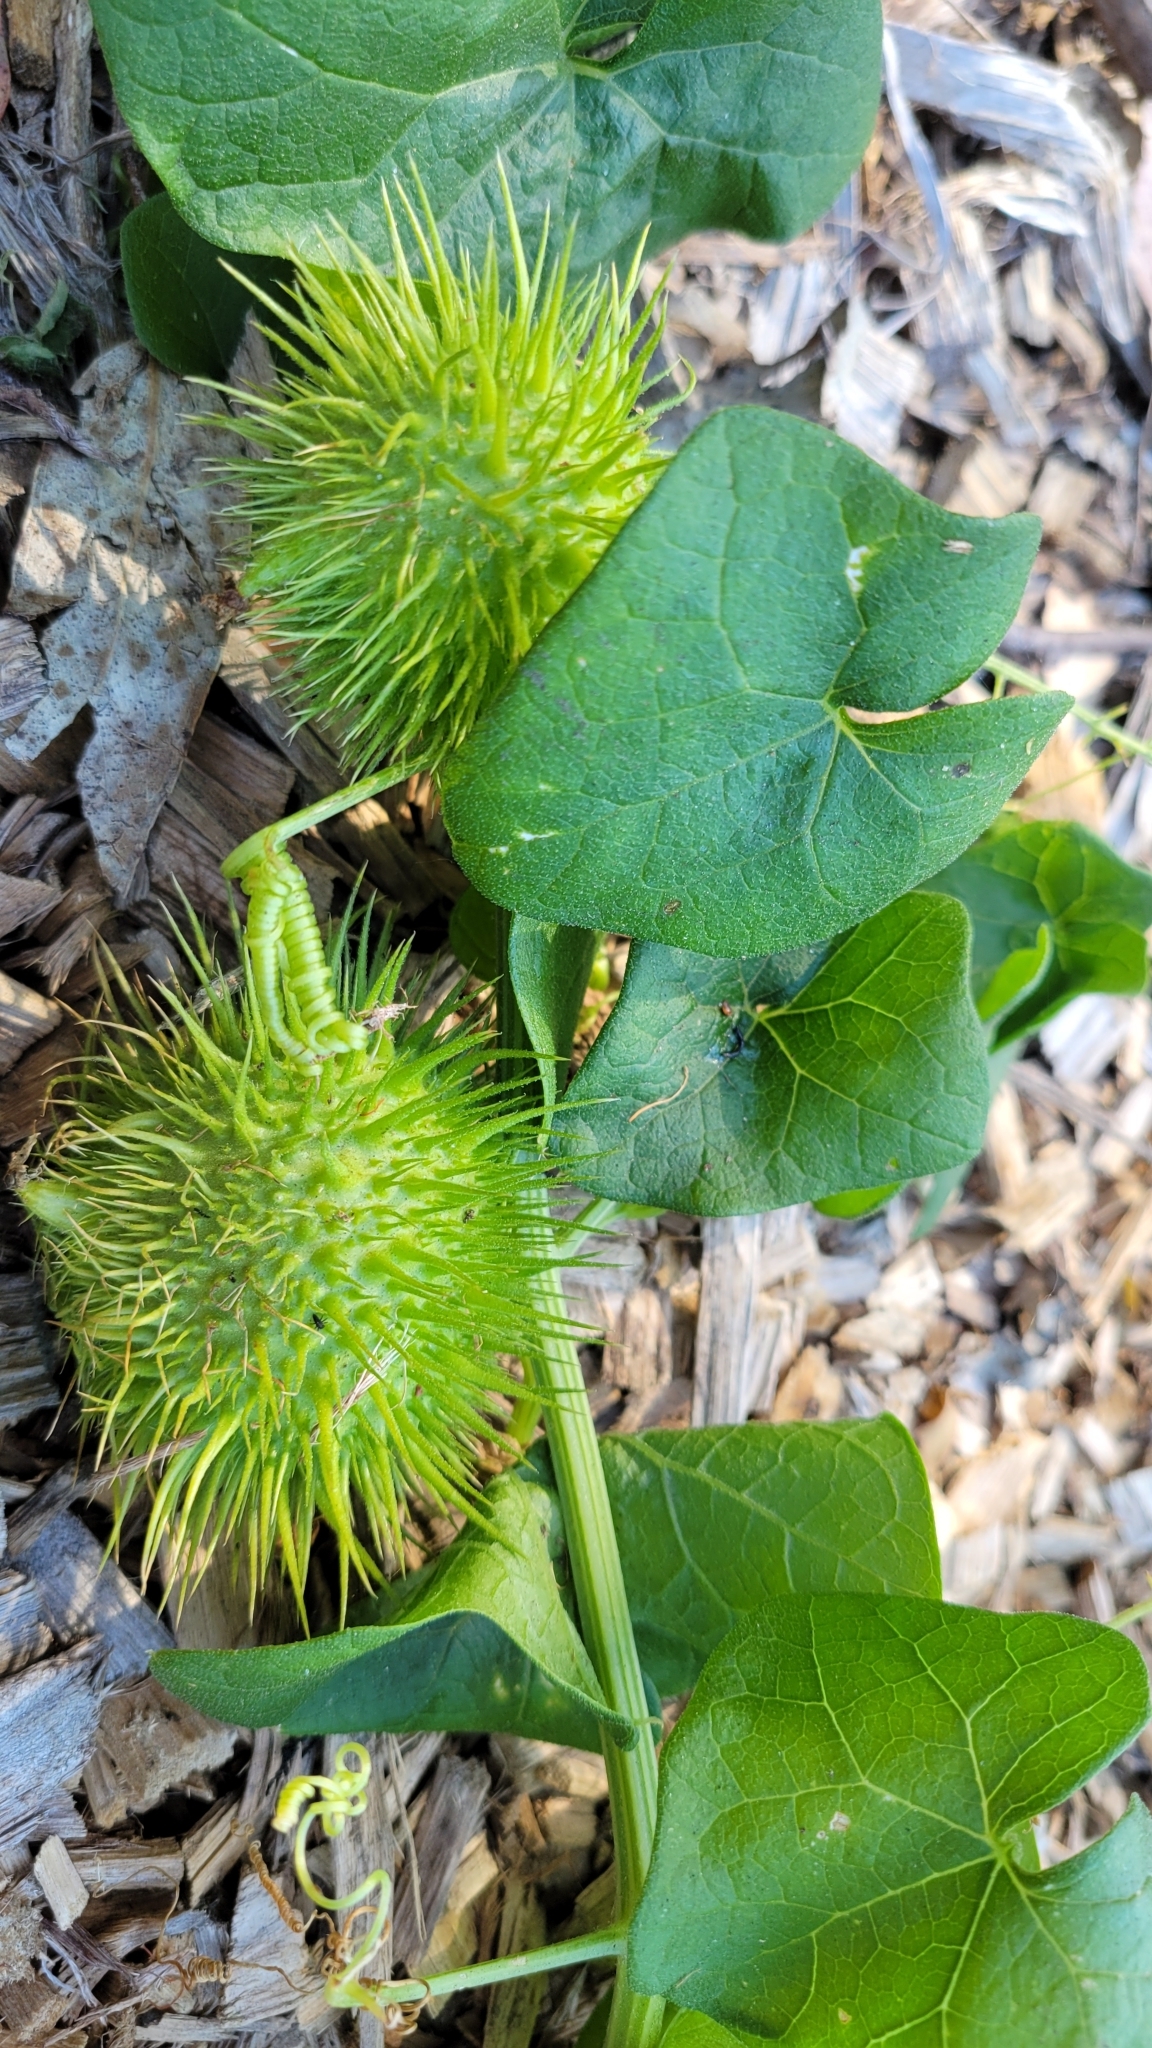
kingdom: Plantae
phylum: Tracheophyta
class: Magnoliopsida
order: Cucurbitales
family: Cucurbitaceae
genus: Marah
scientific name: Marah fabacea
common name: California manroot
